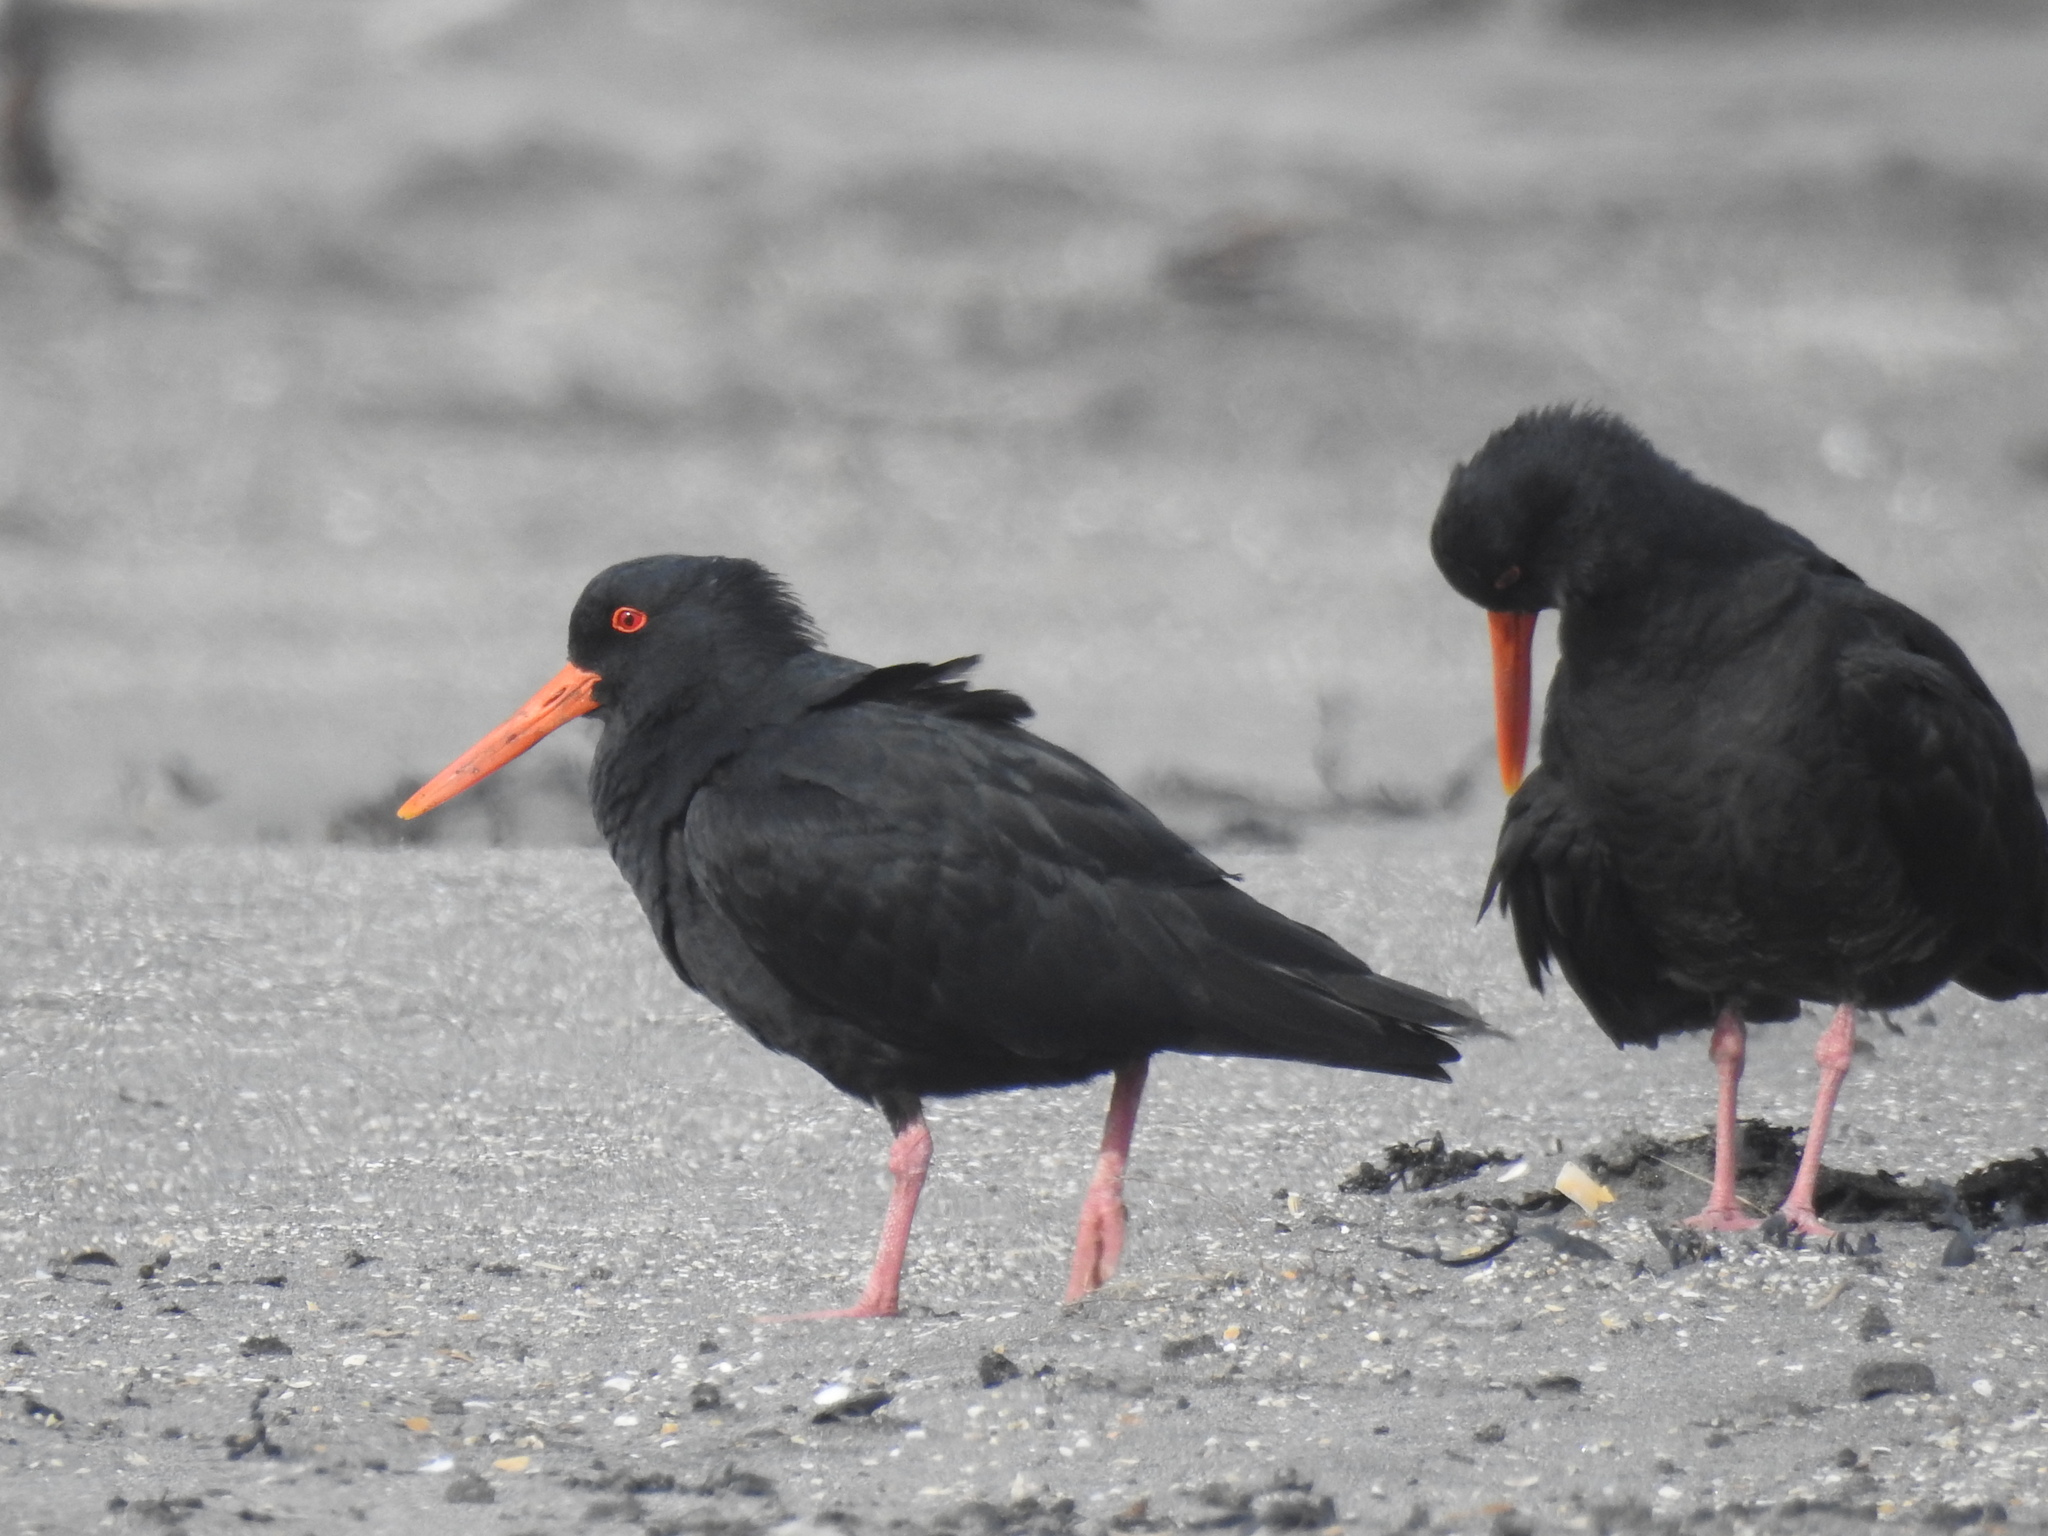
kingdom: Animalia
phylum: Chordata
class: Aves
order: Charadriiformes
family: Haematopodidae
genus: Haematopus
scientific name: Haematopus unicolor
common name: Variable oystercatcher
